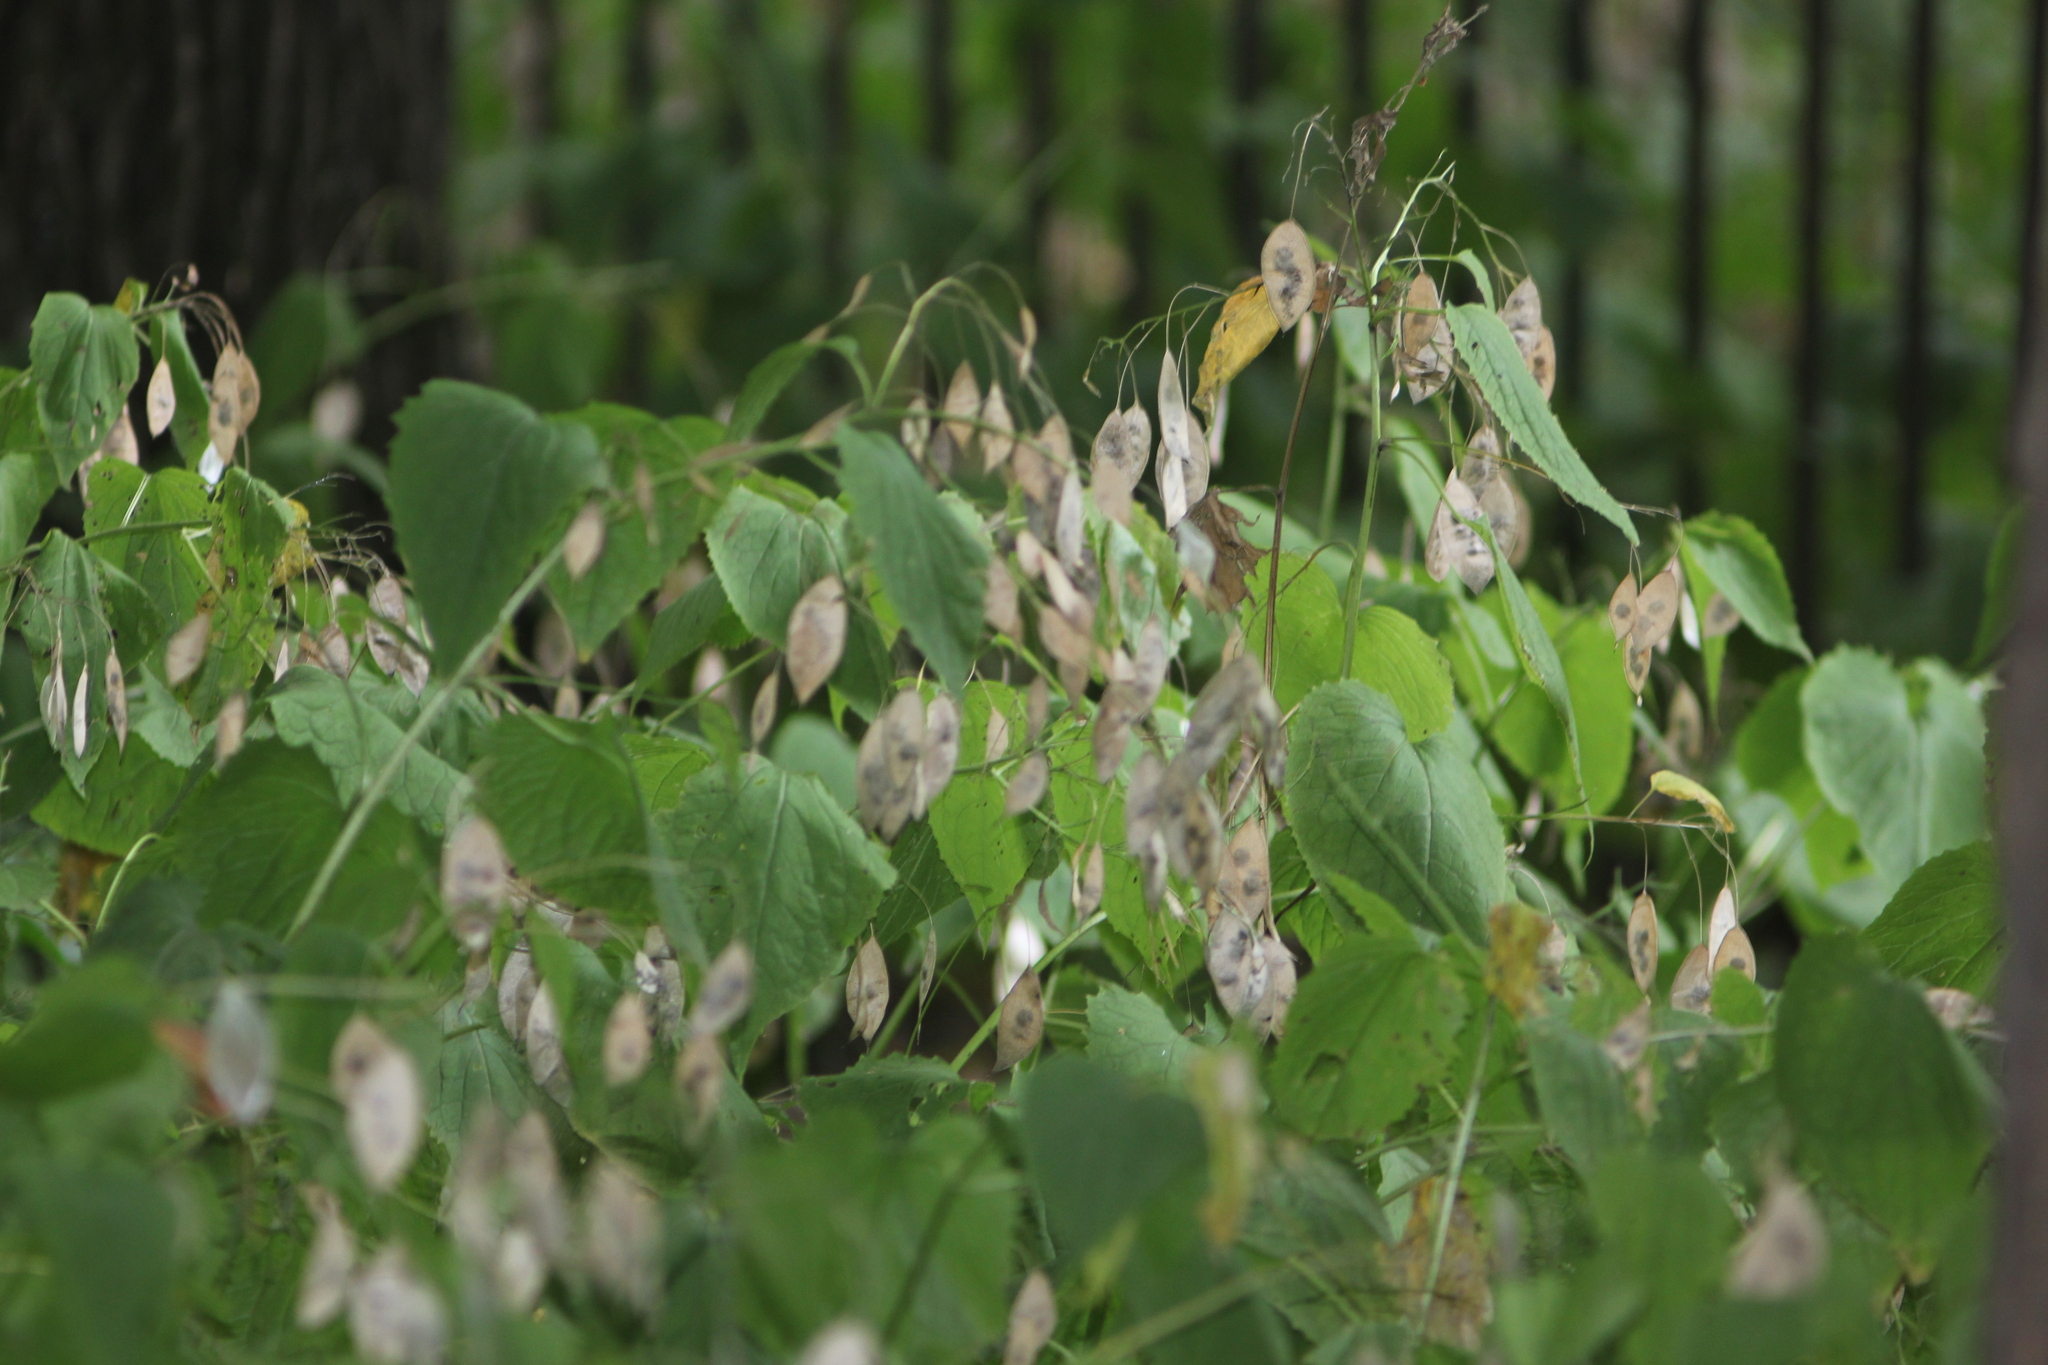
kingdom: Plantae
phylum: Tracheophyta
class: Magnoliopsida
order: Brassicales
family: Brassicaceae
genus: Lunaria
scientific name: Lunaria rediviva
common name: Perennial honesty
